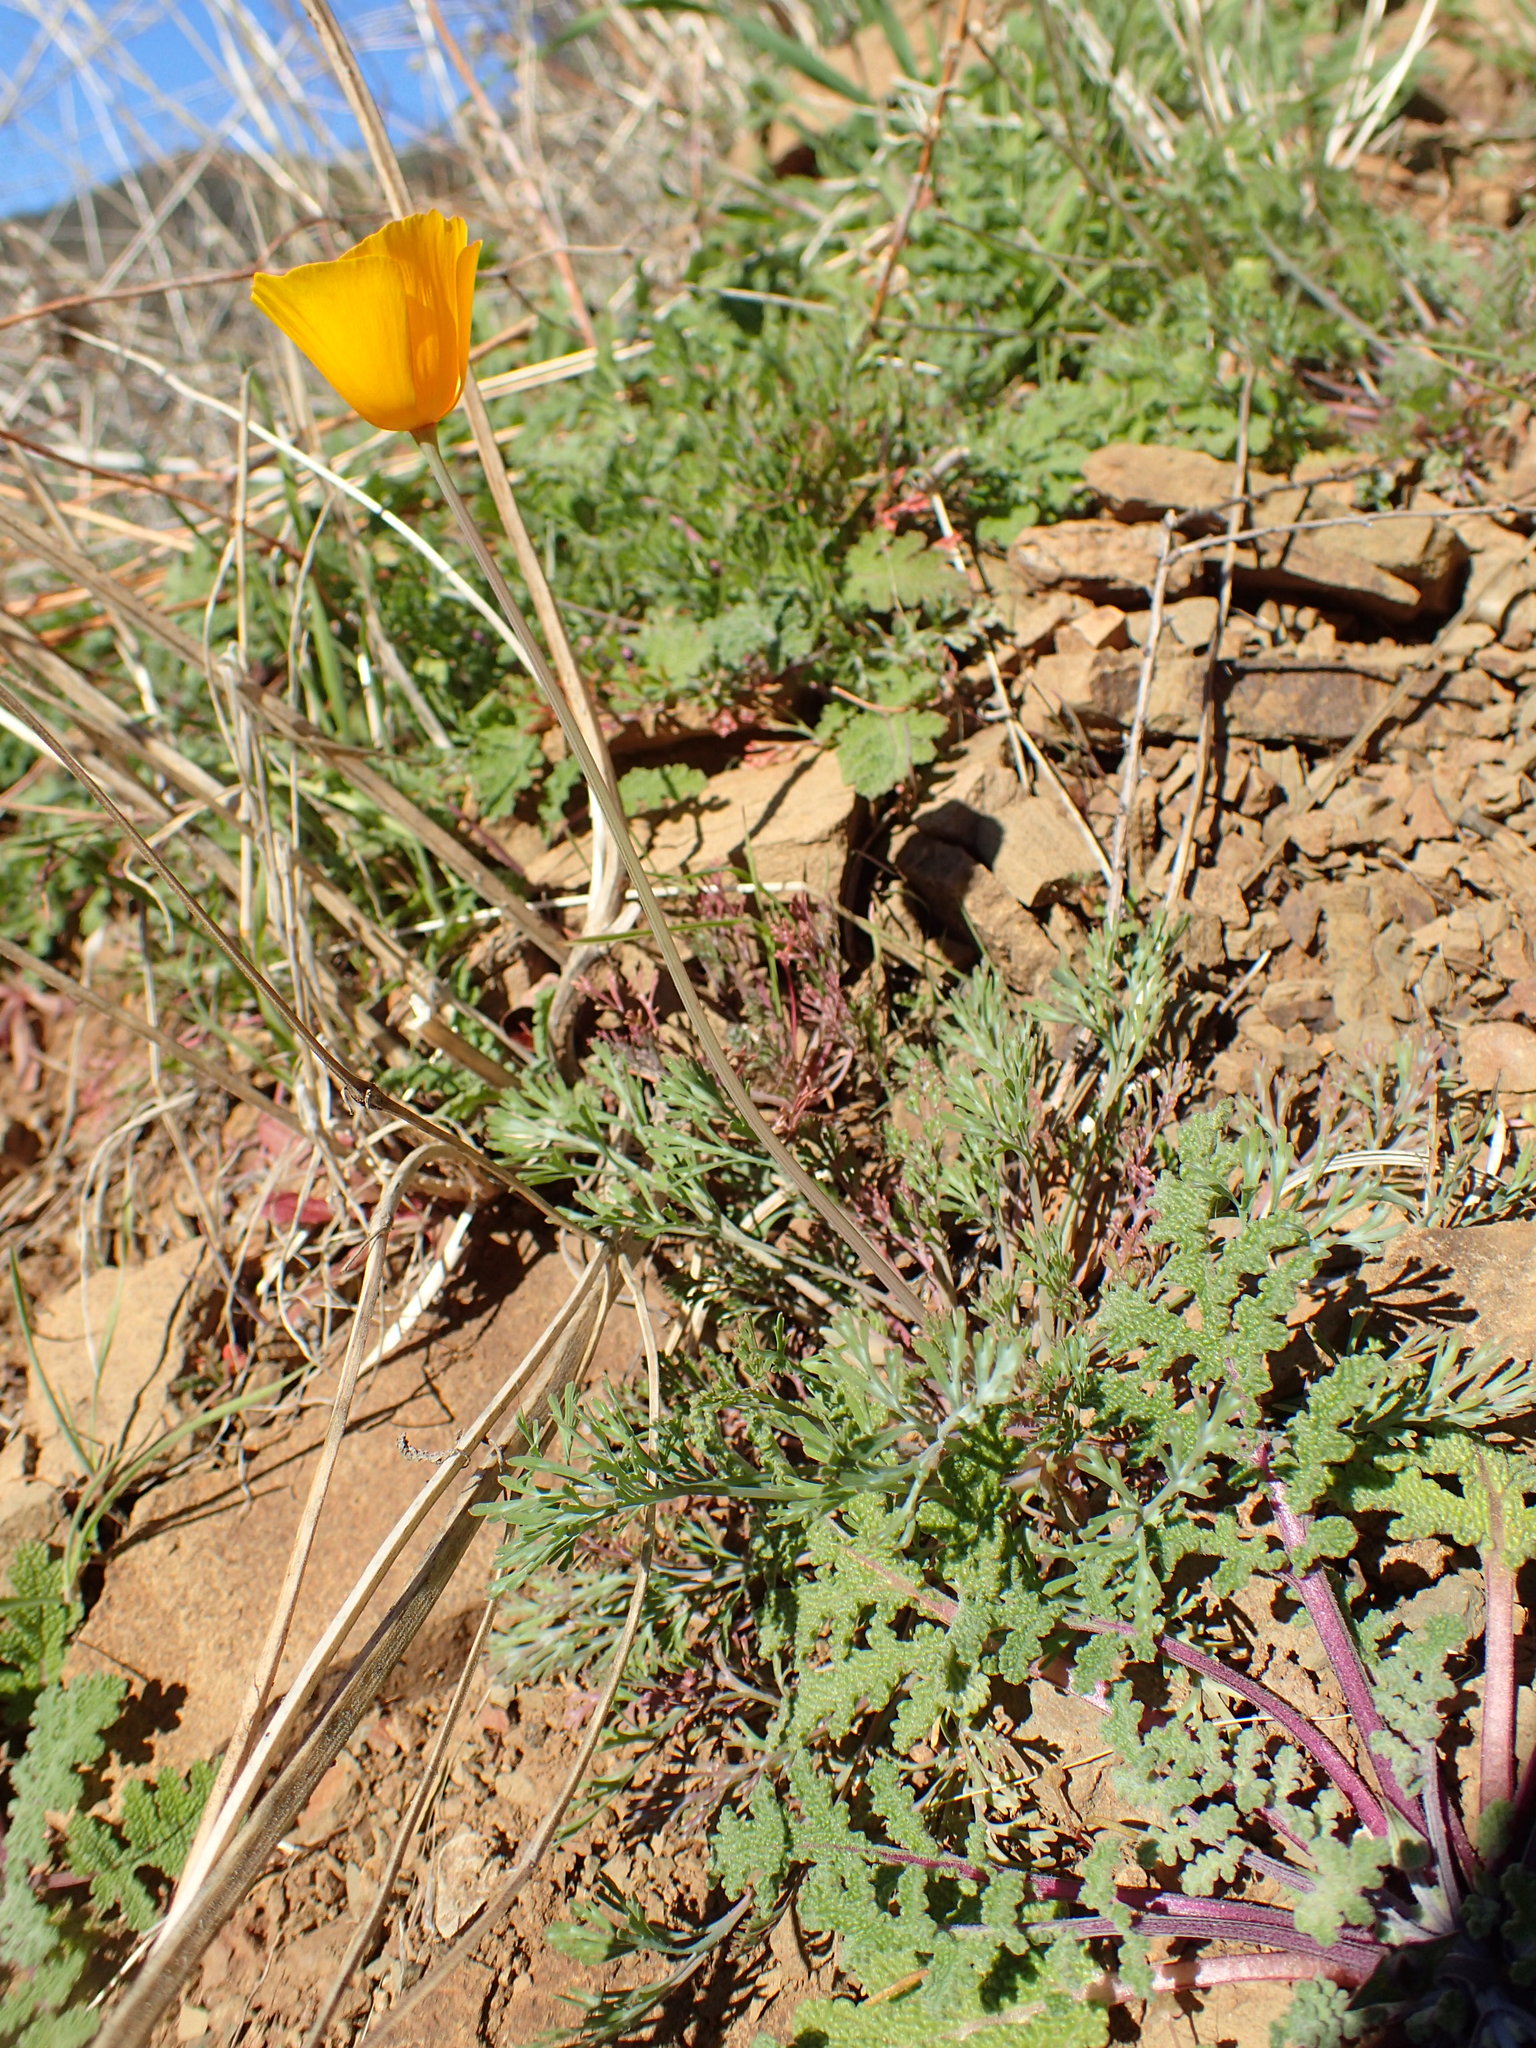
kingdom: Plantae
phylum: Tracheophyta
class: Magnoliopsida
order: Ranunculales
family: Papaveraceae
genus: Eschscholzia
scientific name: Eschscholzia caespitosa
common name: Tufted california-poppy
